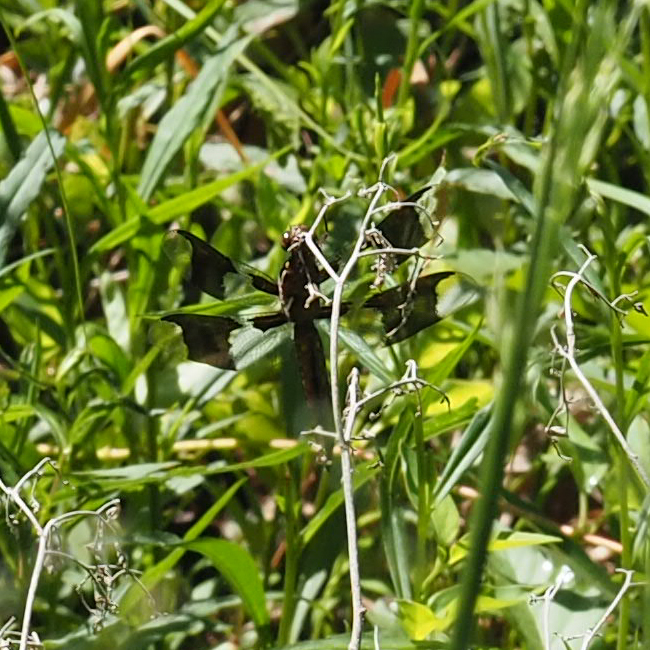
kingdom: Animalia
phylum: Arthropoda
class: Insecta
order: Odonata
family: Libellulidae
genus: Plathemis
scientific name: Plathemis lydia
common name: Common whitetail
